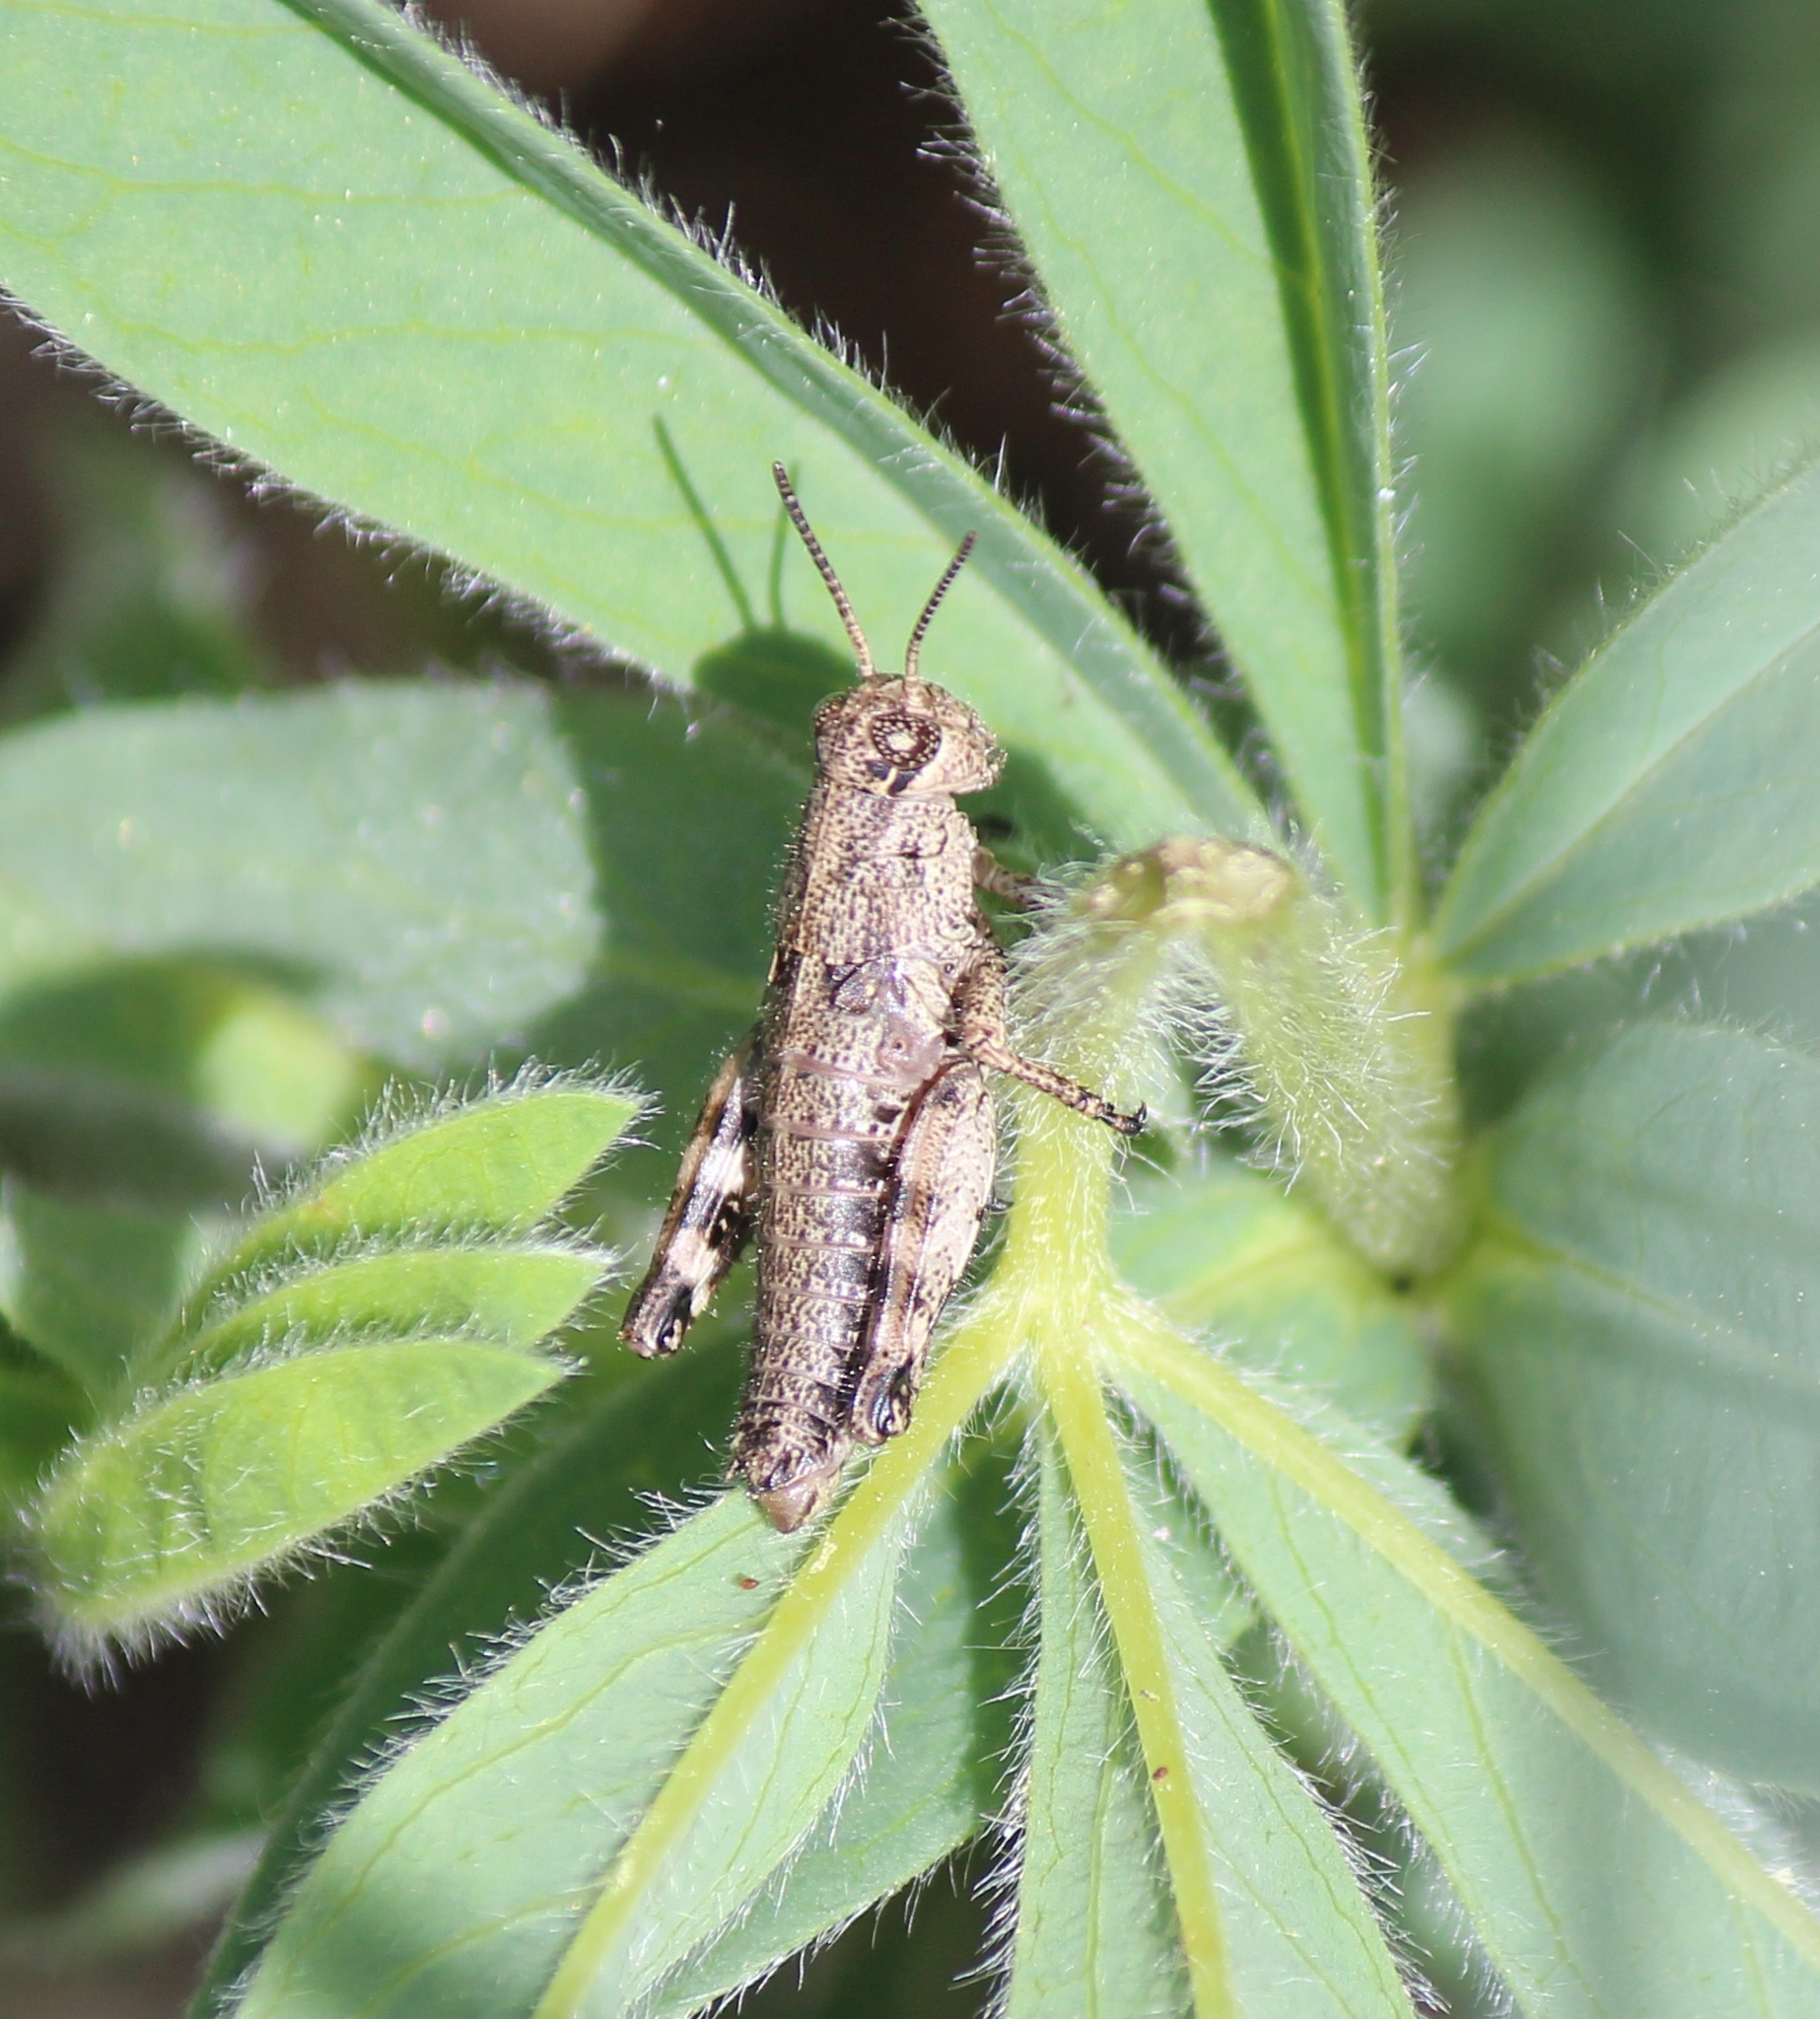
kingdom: Animalia
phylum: Arthropoda
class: Insecta
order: Orthoptera
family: Acrididae
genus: Podisma
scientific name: Podisma pedestris
